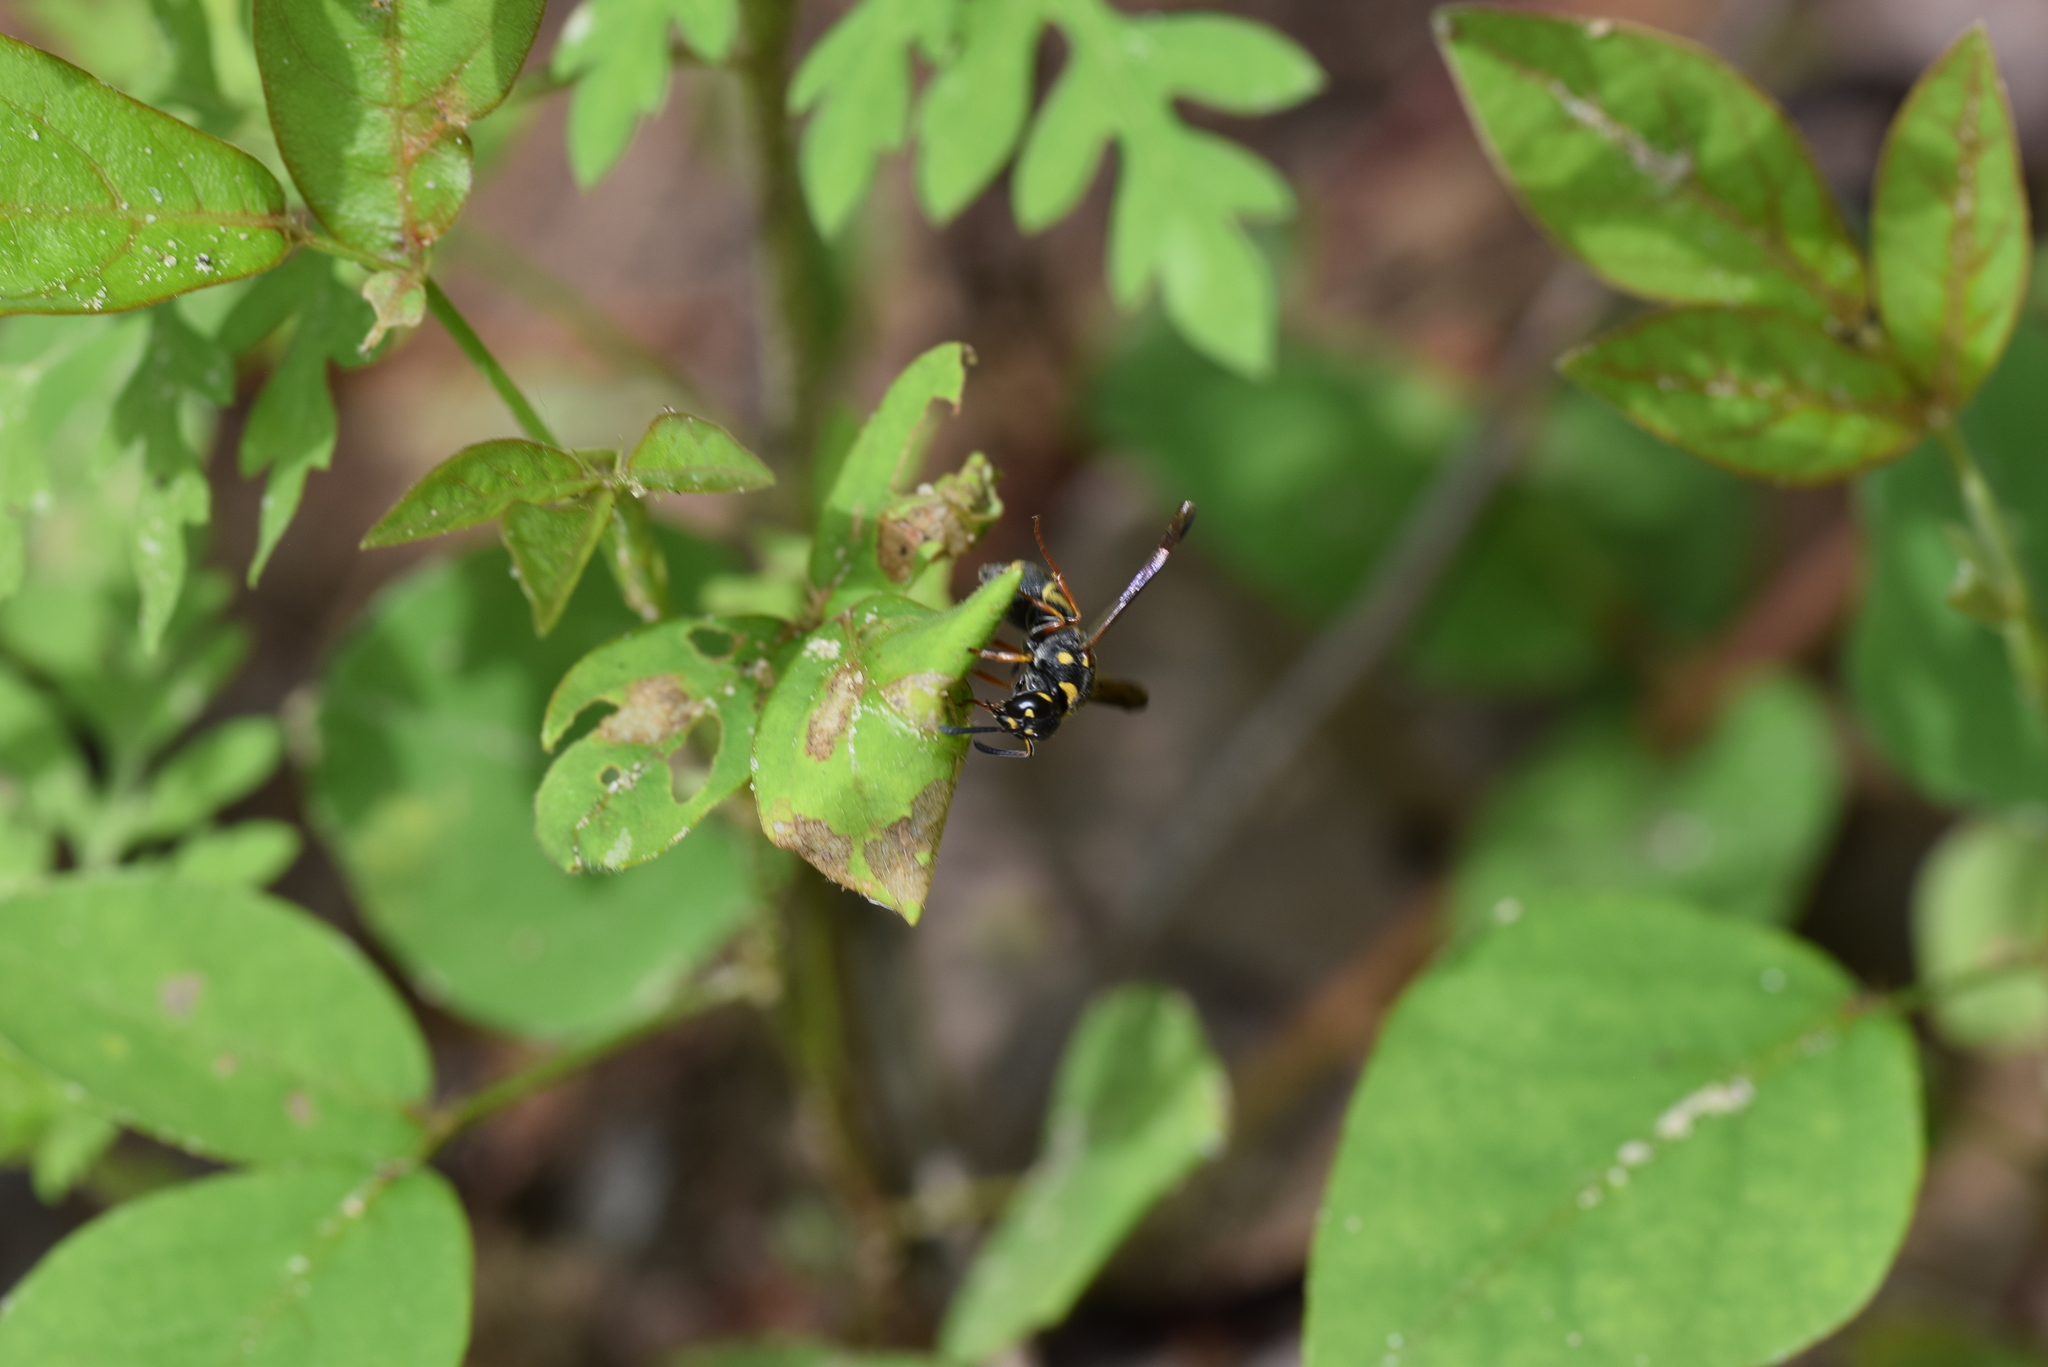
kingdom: Animalia
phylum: Arthropoda
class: Insecta
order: Hymenoptera
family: Eumenidae
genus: Parancistrocerus
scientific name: Parancistrocerus fulvipes
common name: Potter wasp
